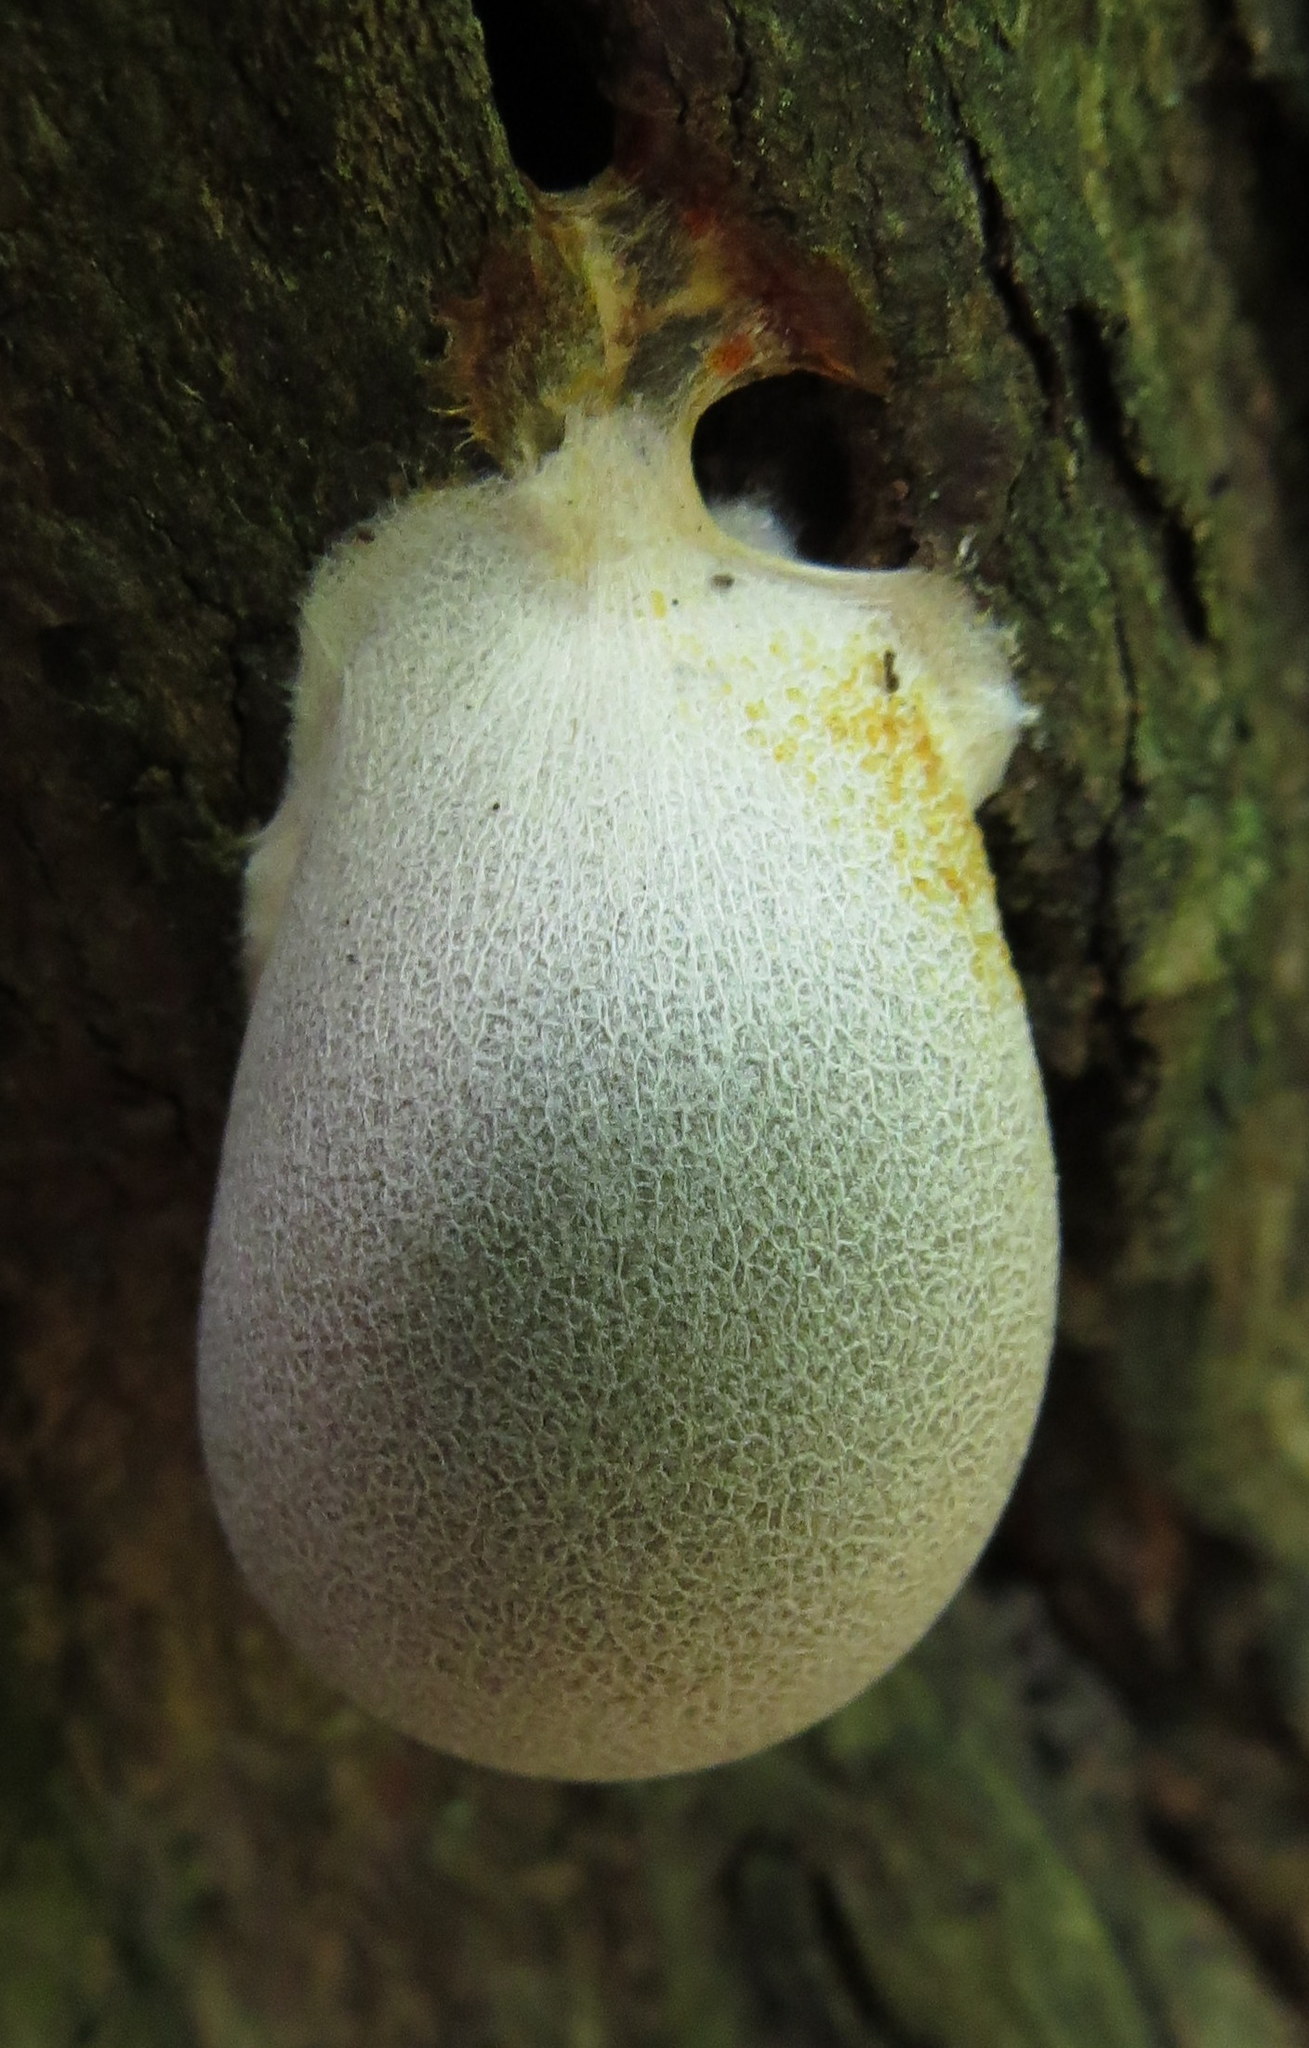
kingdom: Protozoa
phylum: Mycetozoa
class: Myxomycetes
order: Cribrariales
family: Tubiferaceae
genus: Lycogala
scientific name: Lycogala flavofuscum
